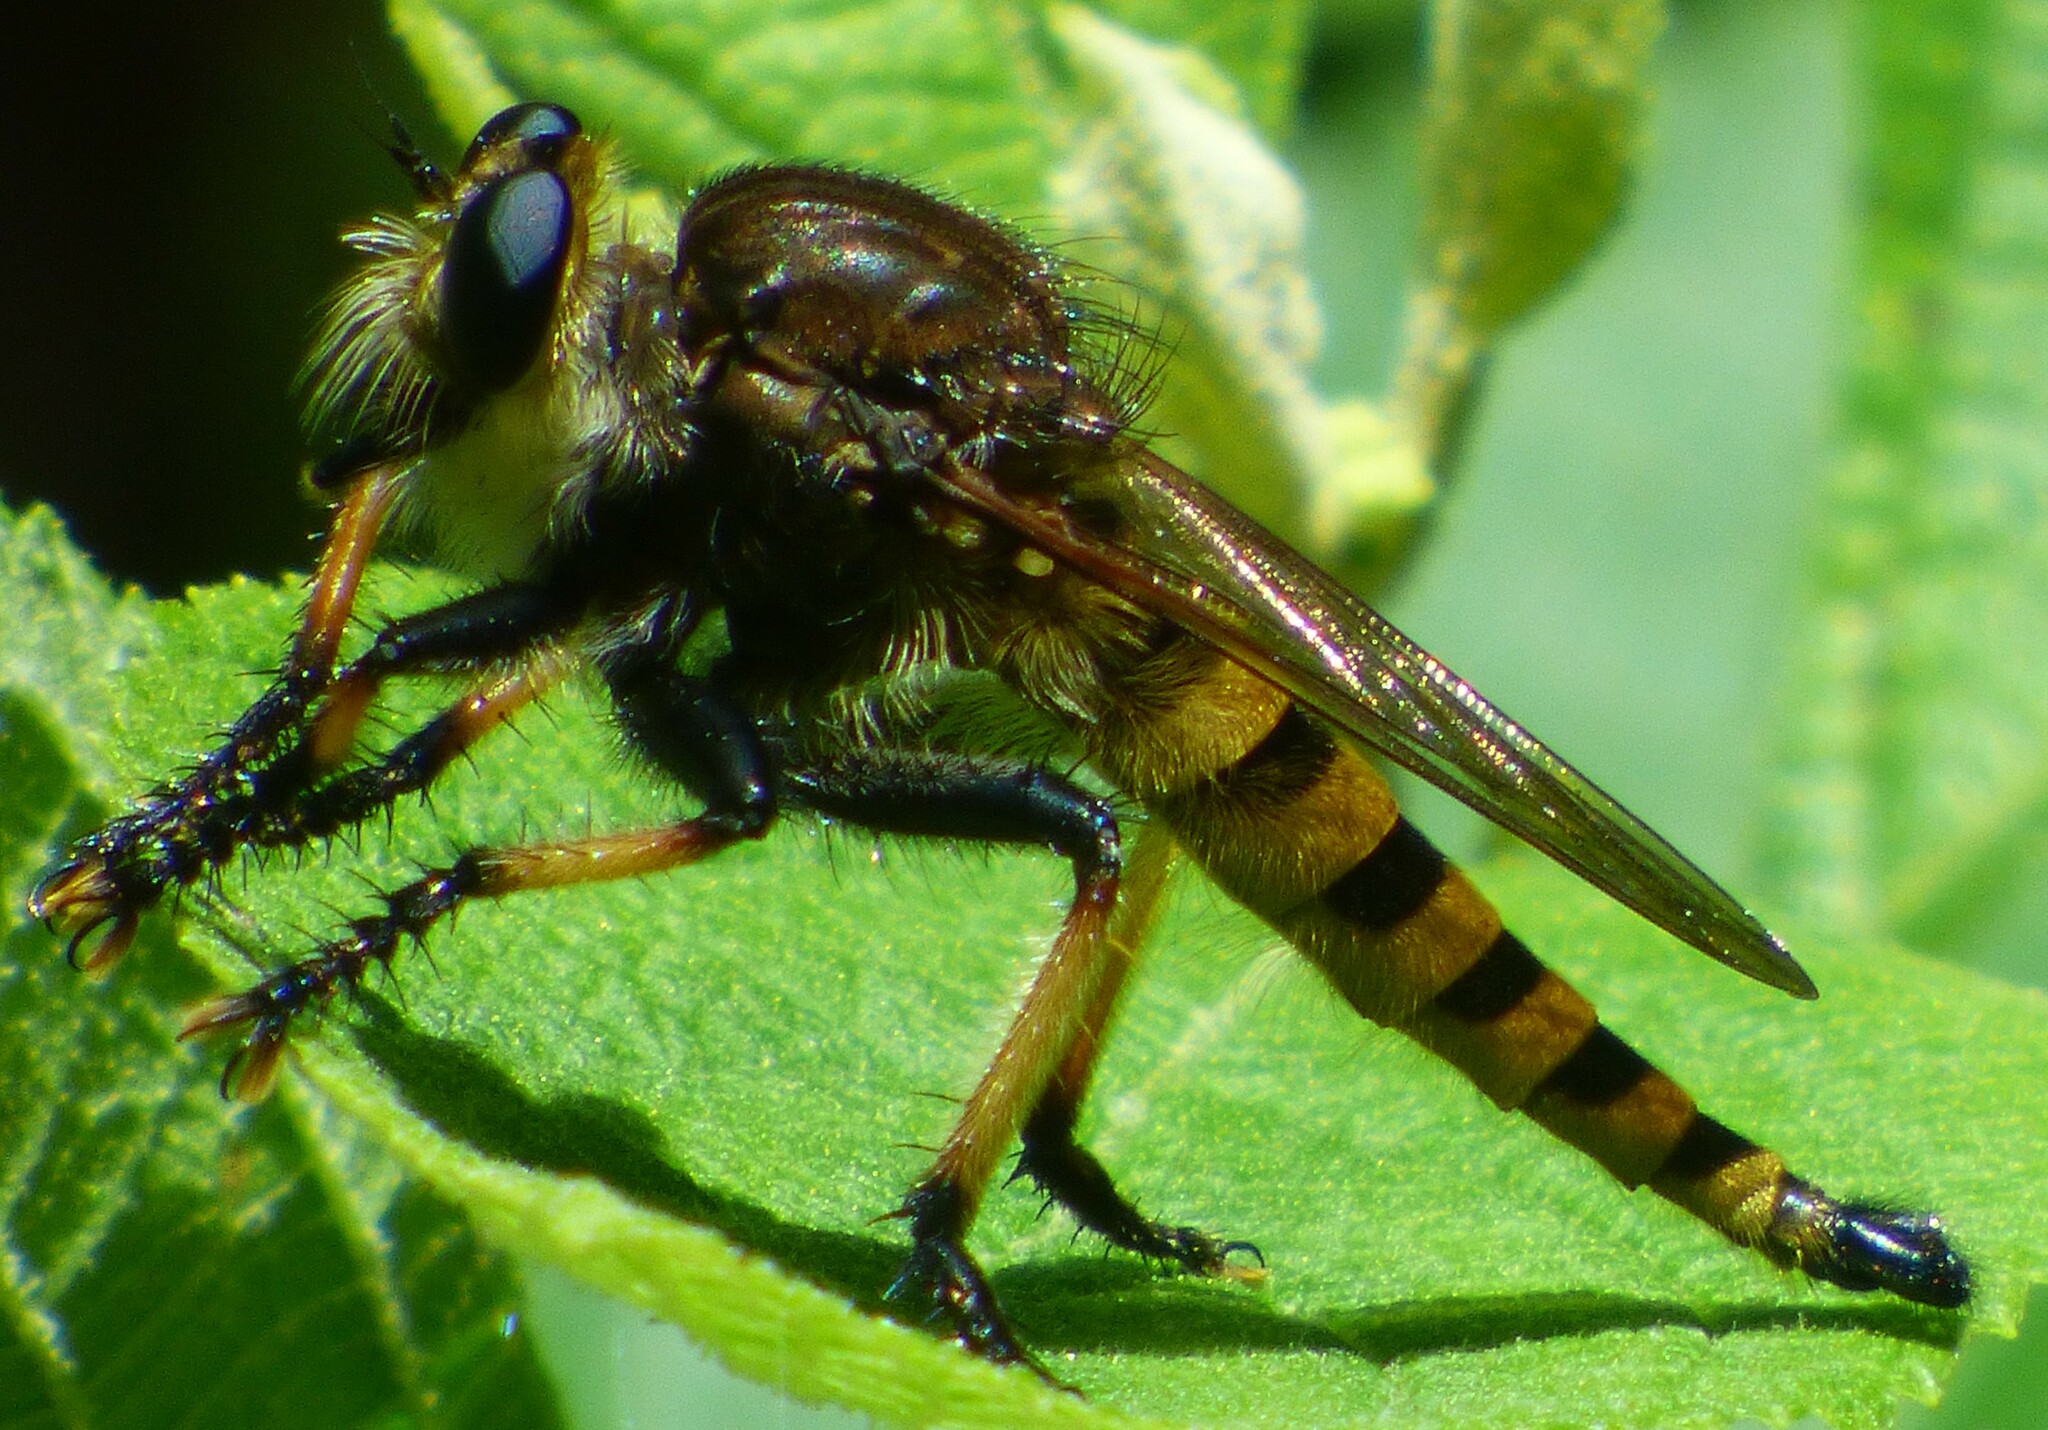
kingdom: Animalia
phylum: Arthropoda
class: Insecta
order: Diptera
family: Asilidae
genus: Promachus
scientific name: Promachus rufipes
